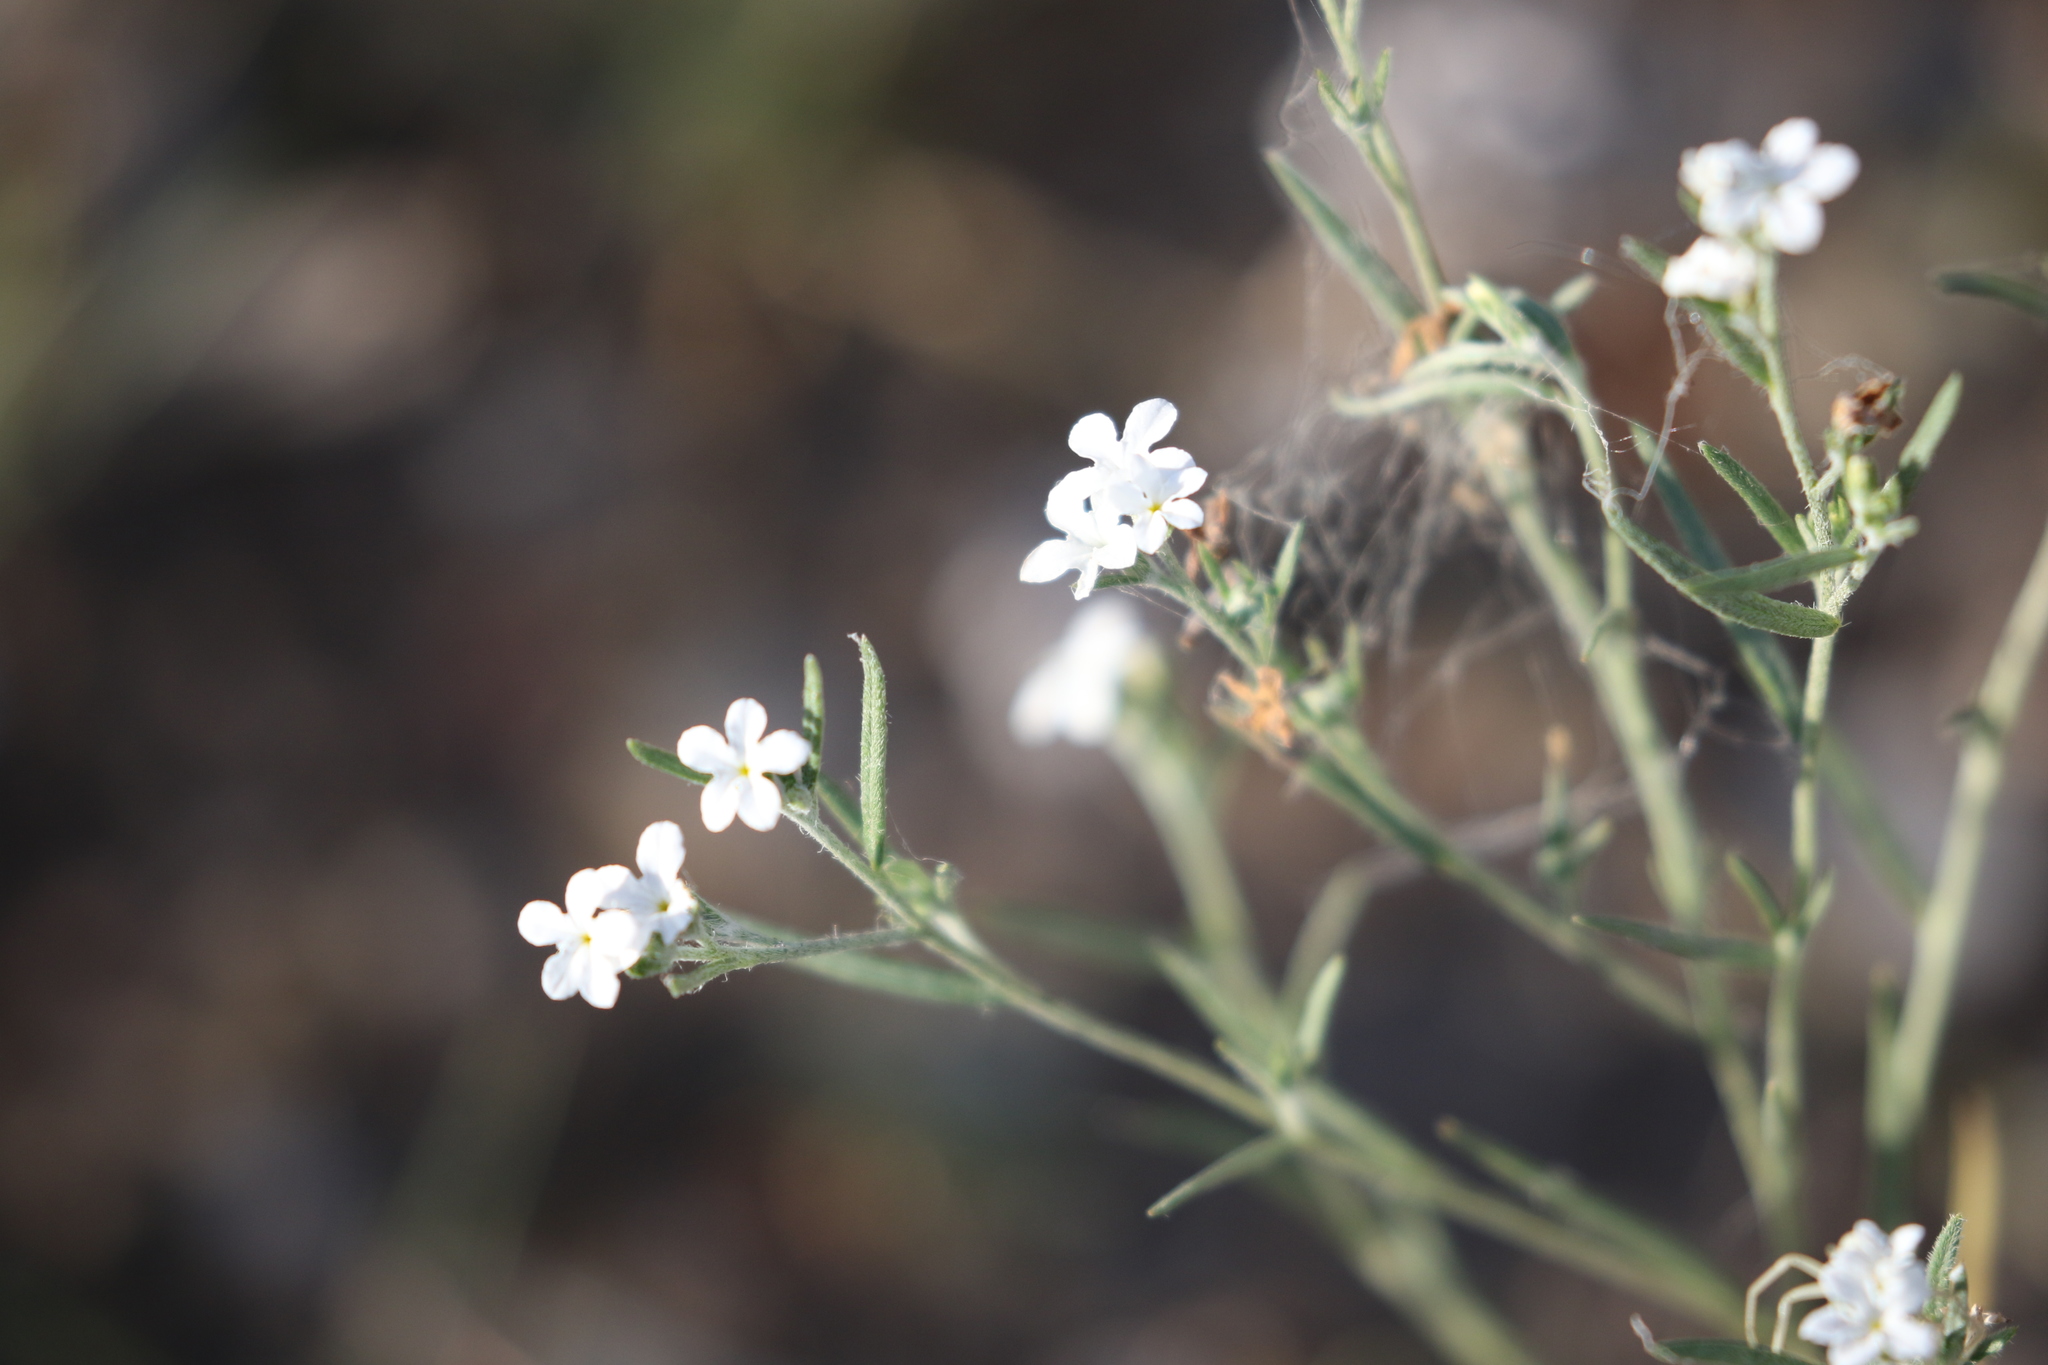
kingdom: Plantae
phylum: Tracheophyta
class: Magnoliopsida
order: Boraginales
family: Heliotropiaceae
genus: Euploca
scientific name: Euploca tenella
